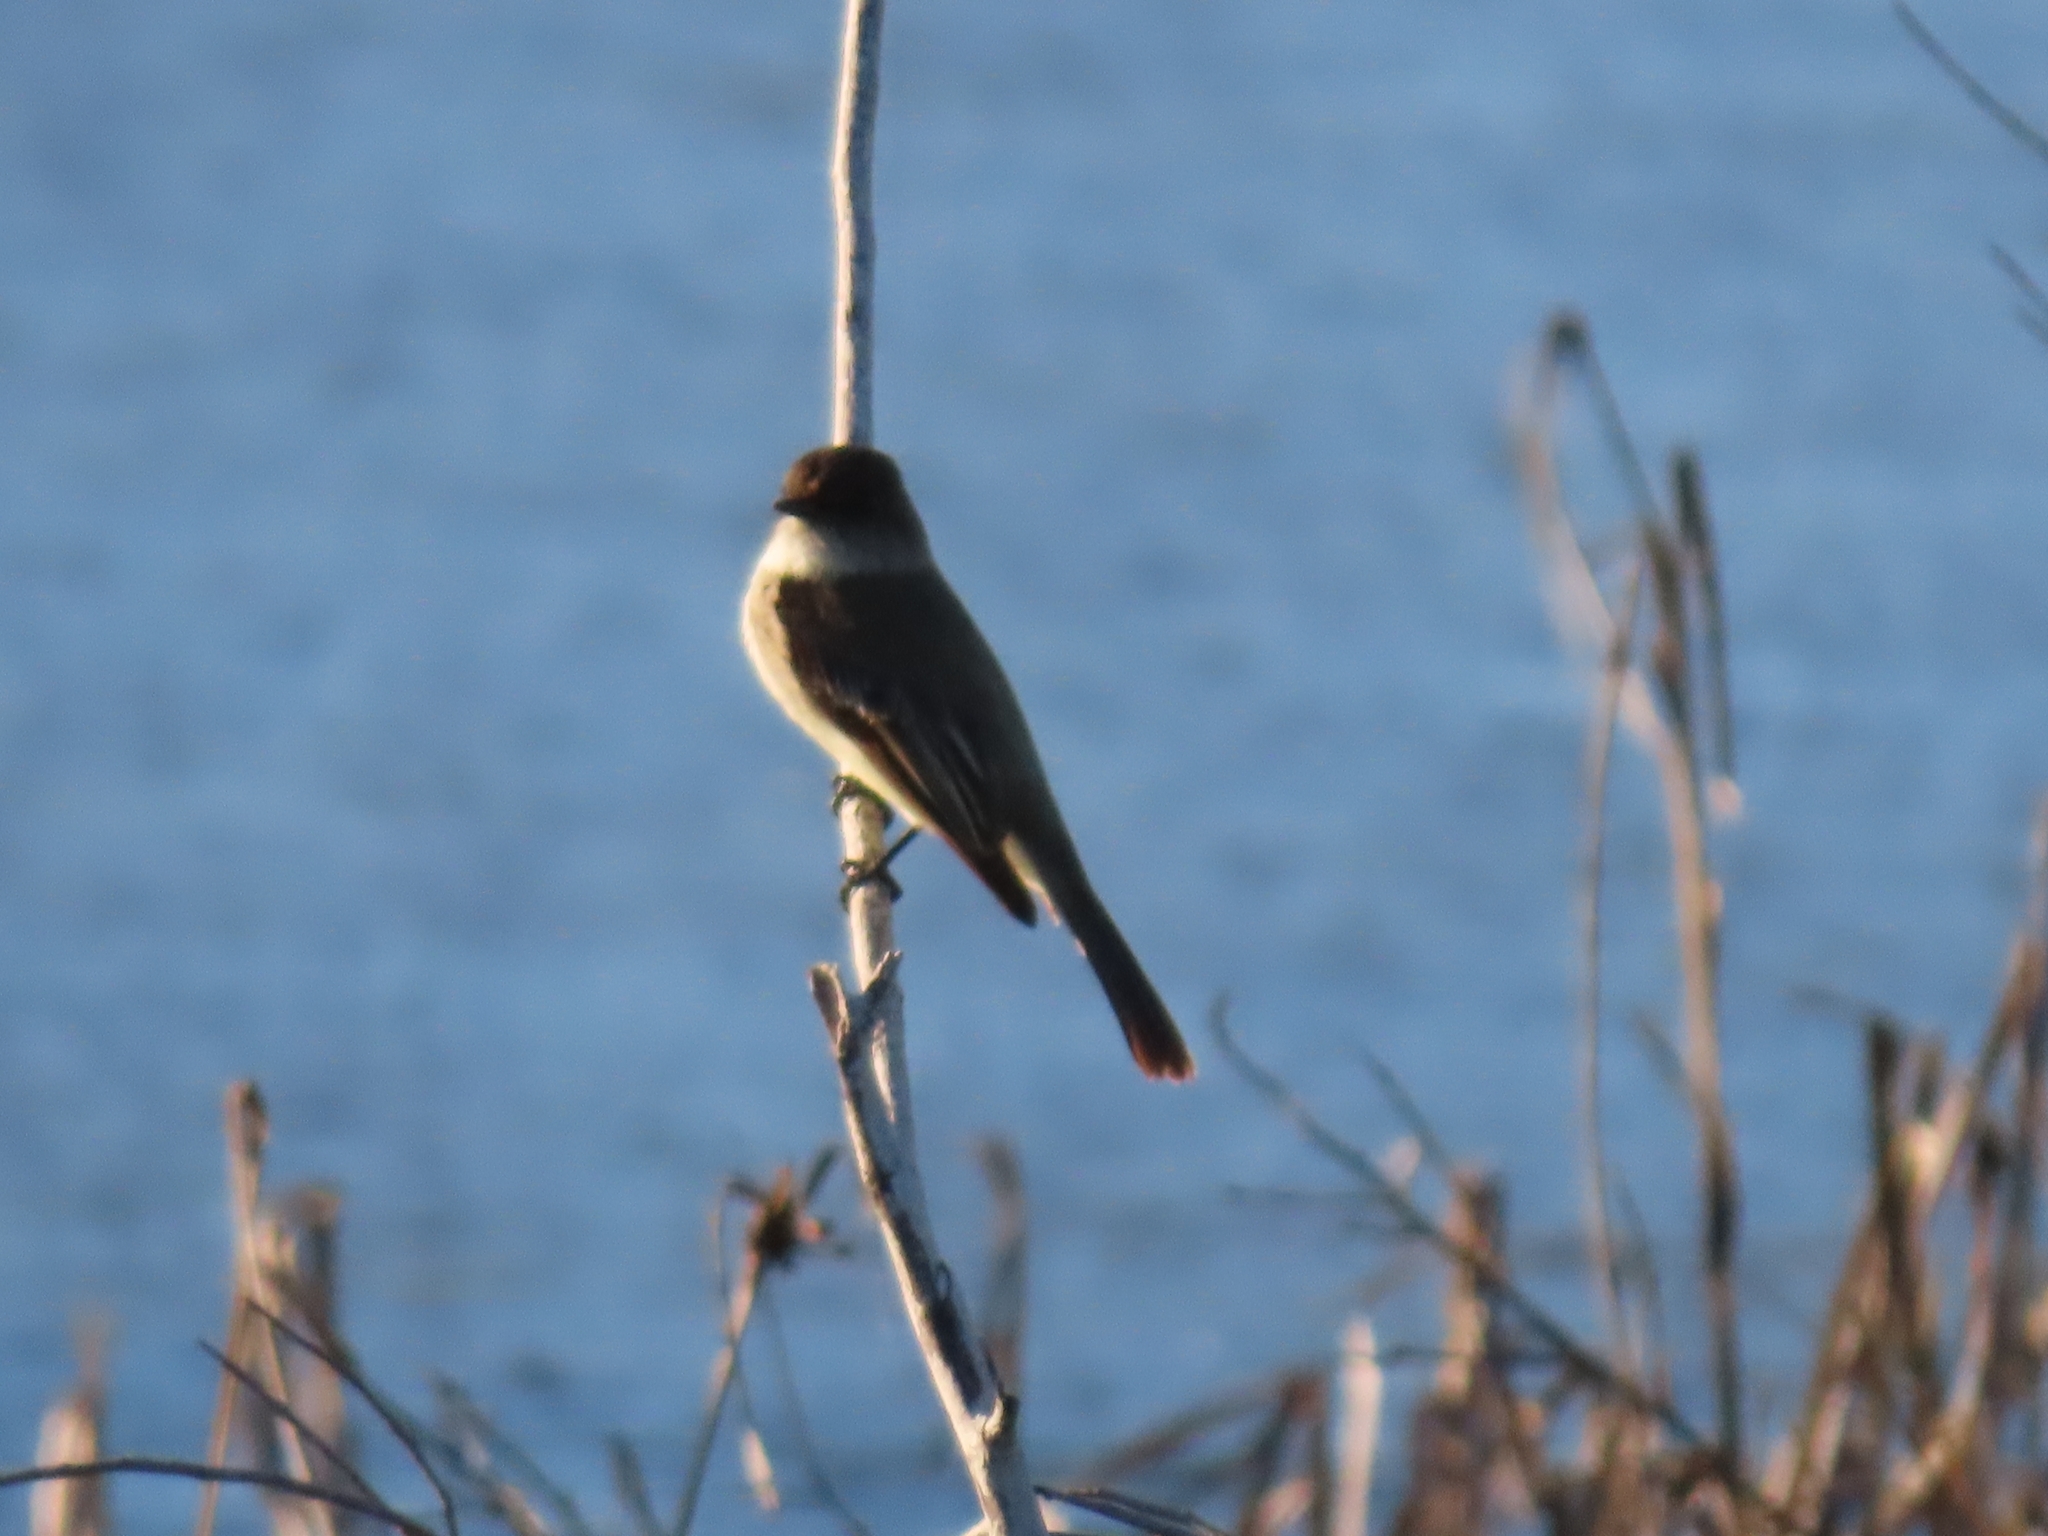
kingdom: Animalia
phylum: Chordata
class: Aves
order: Passeriformes
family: Tyrannidae
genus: Sayornis
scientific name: Sayornis phoebe
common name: Eastern phoebe
